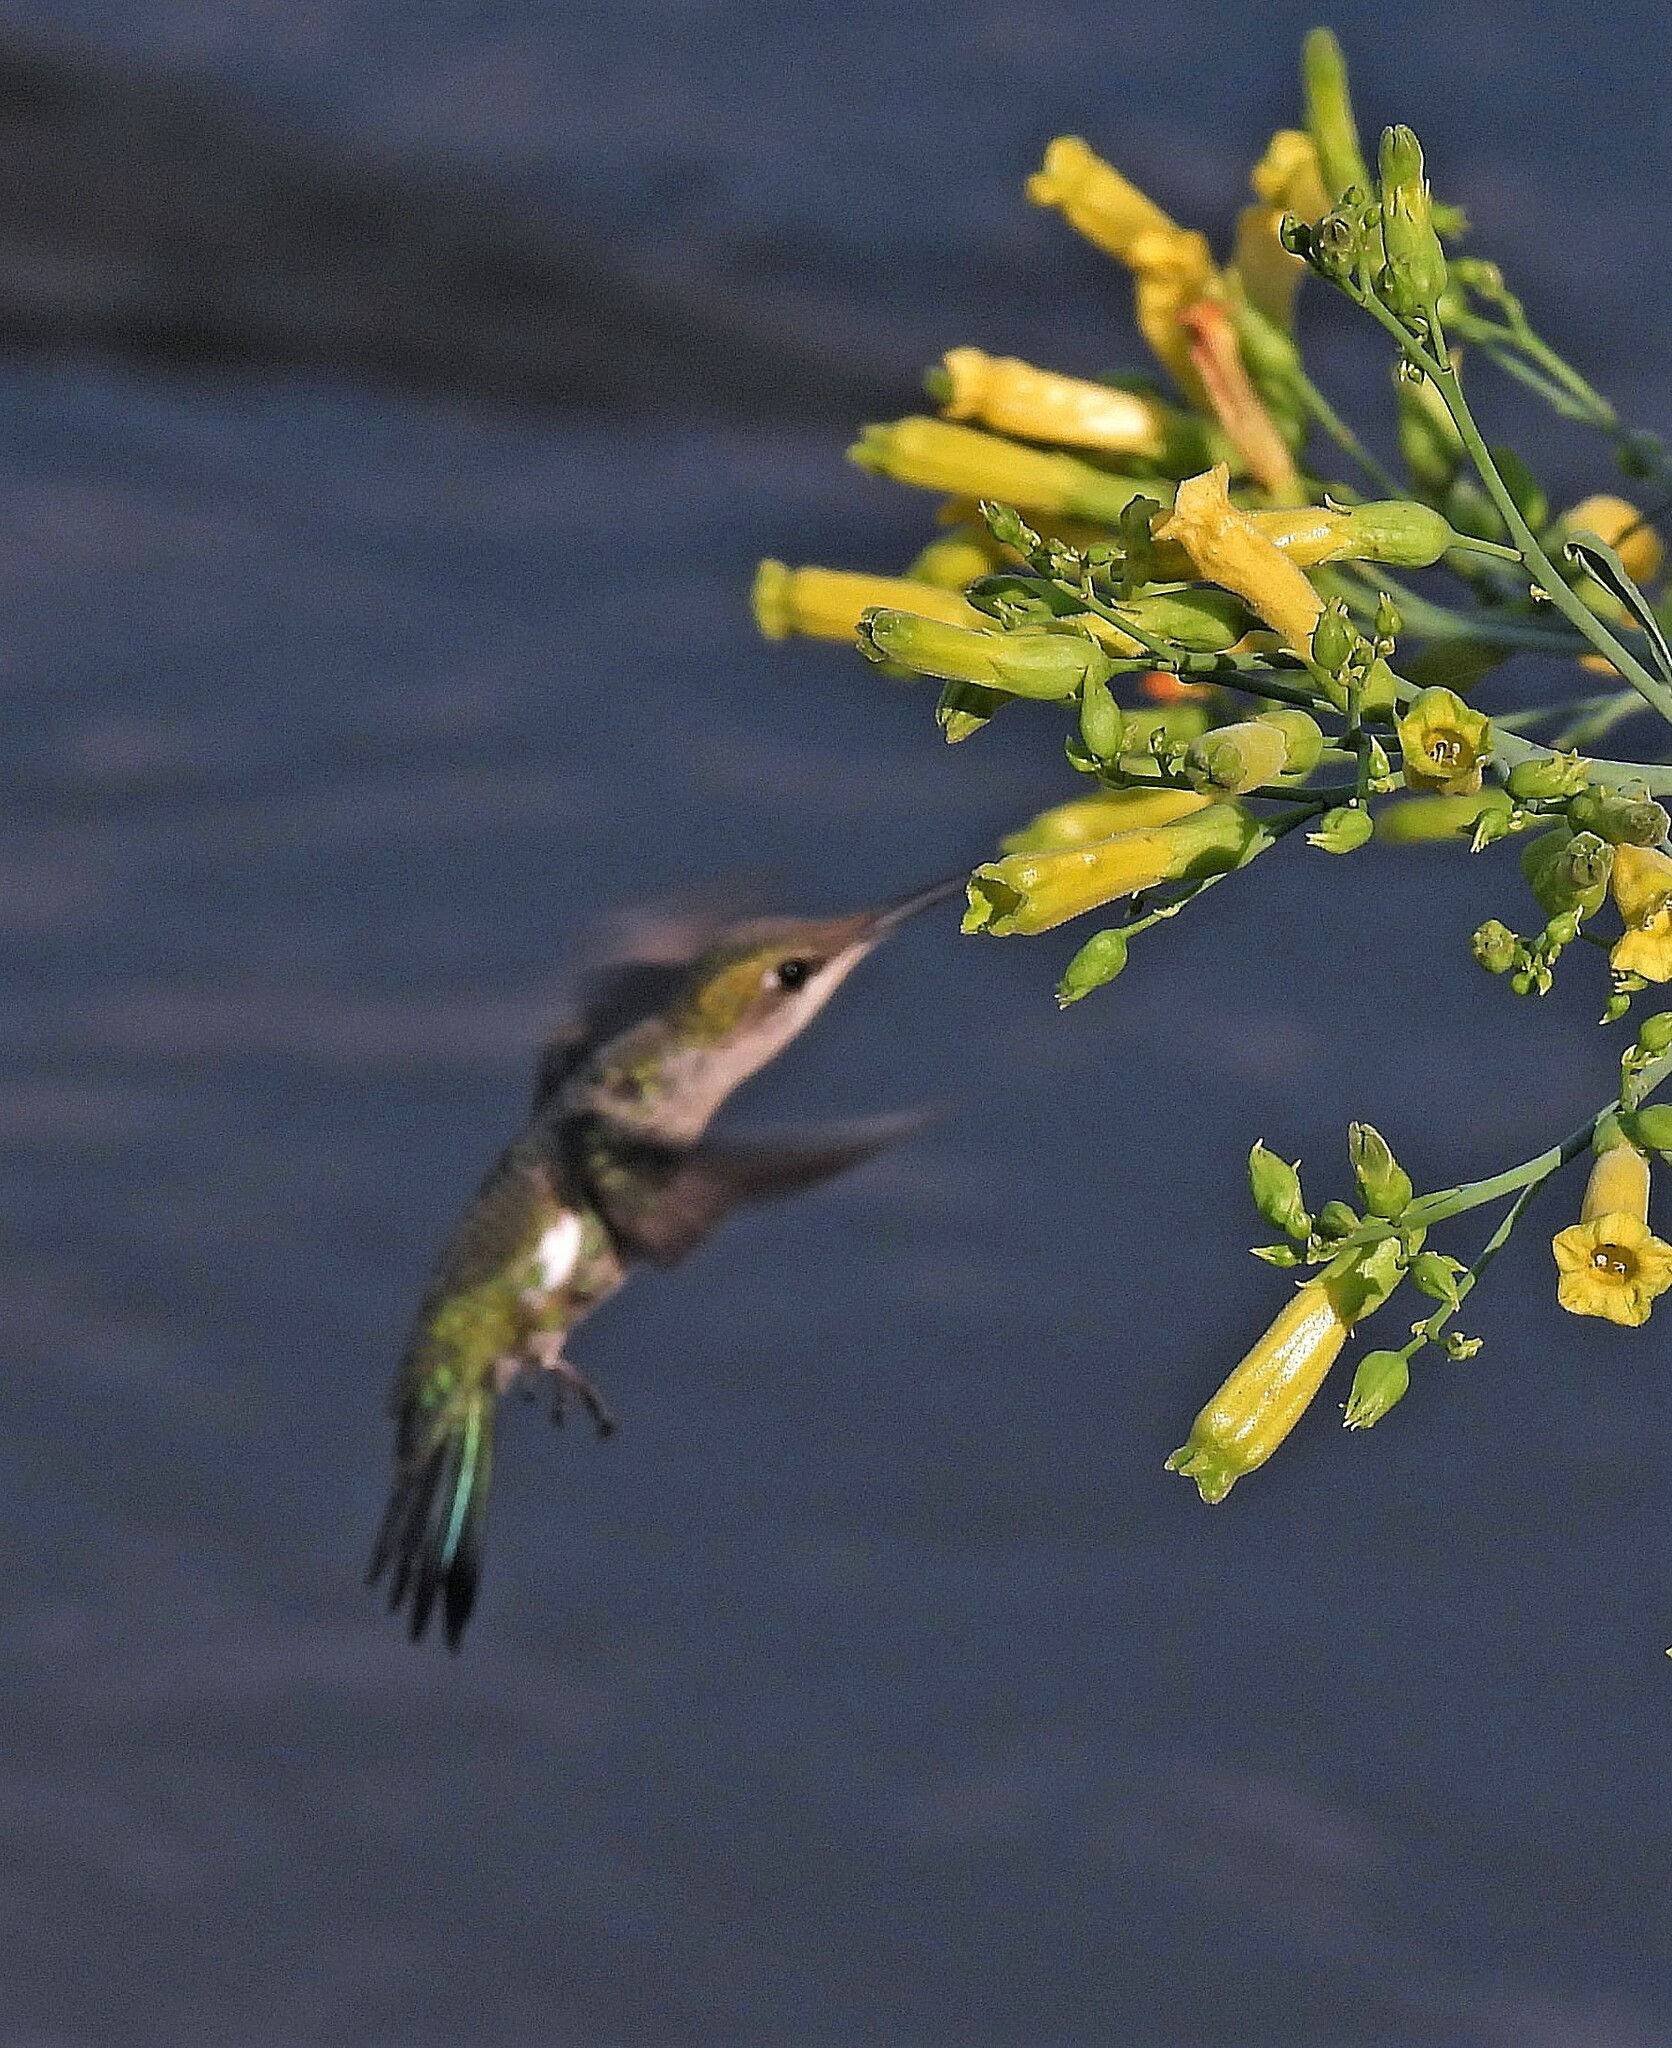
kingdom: Animalia
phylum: Chordata
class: Aves
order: Apodiformes
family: Trochilidae
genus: Heliomaster
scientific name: Heliomaster furcifer
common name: Blue-tufted starthroat
